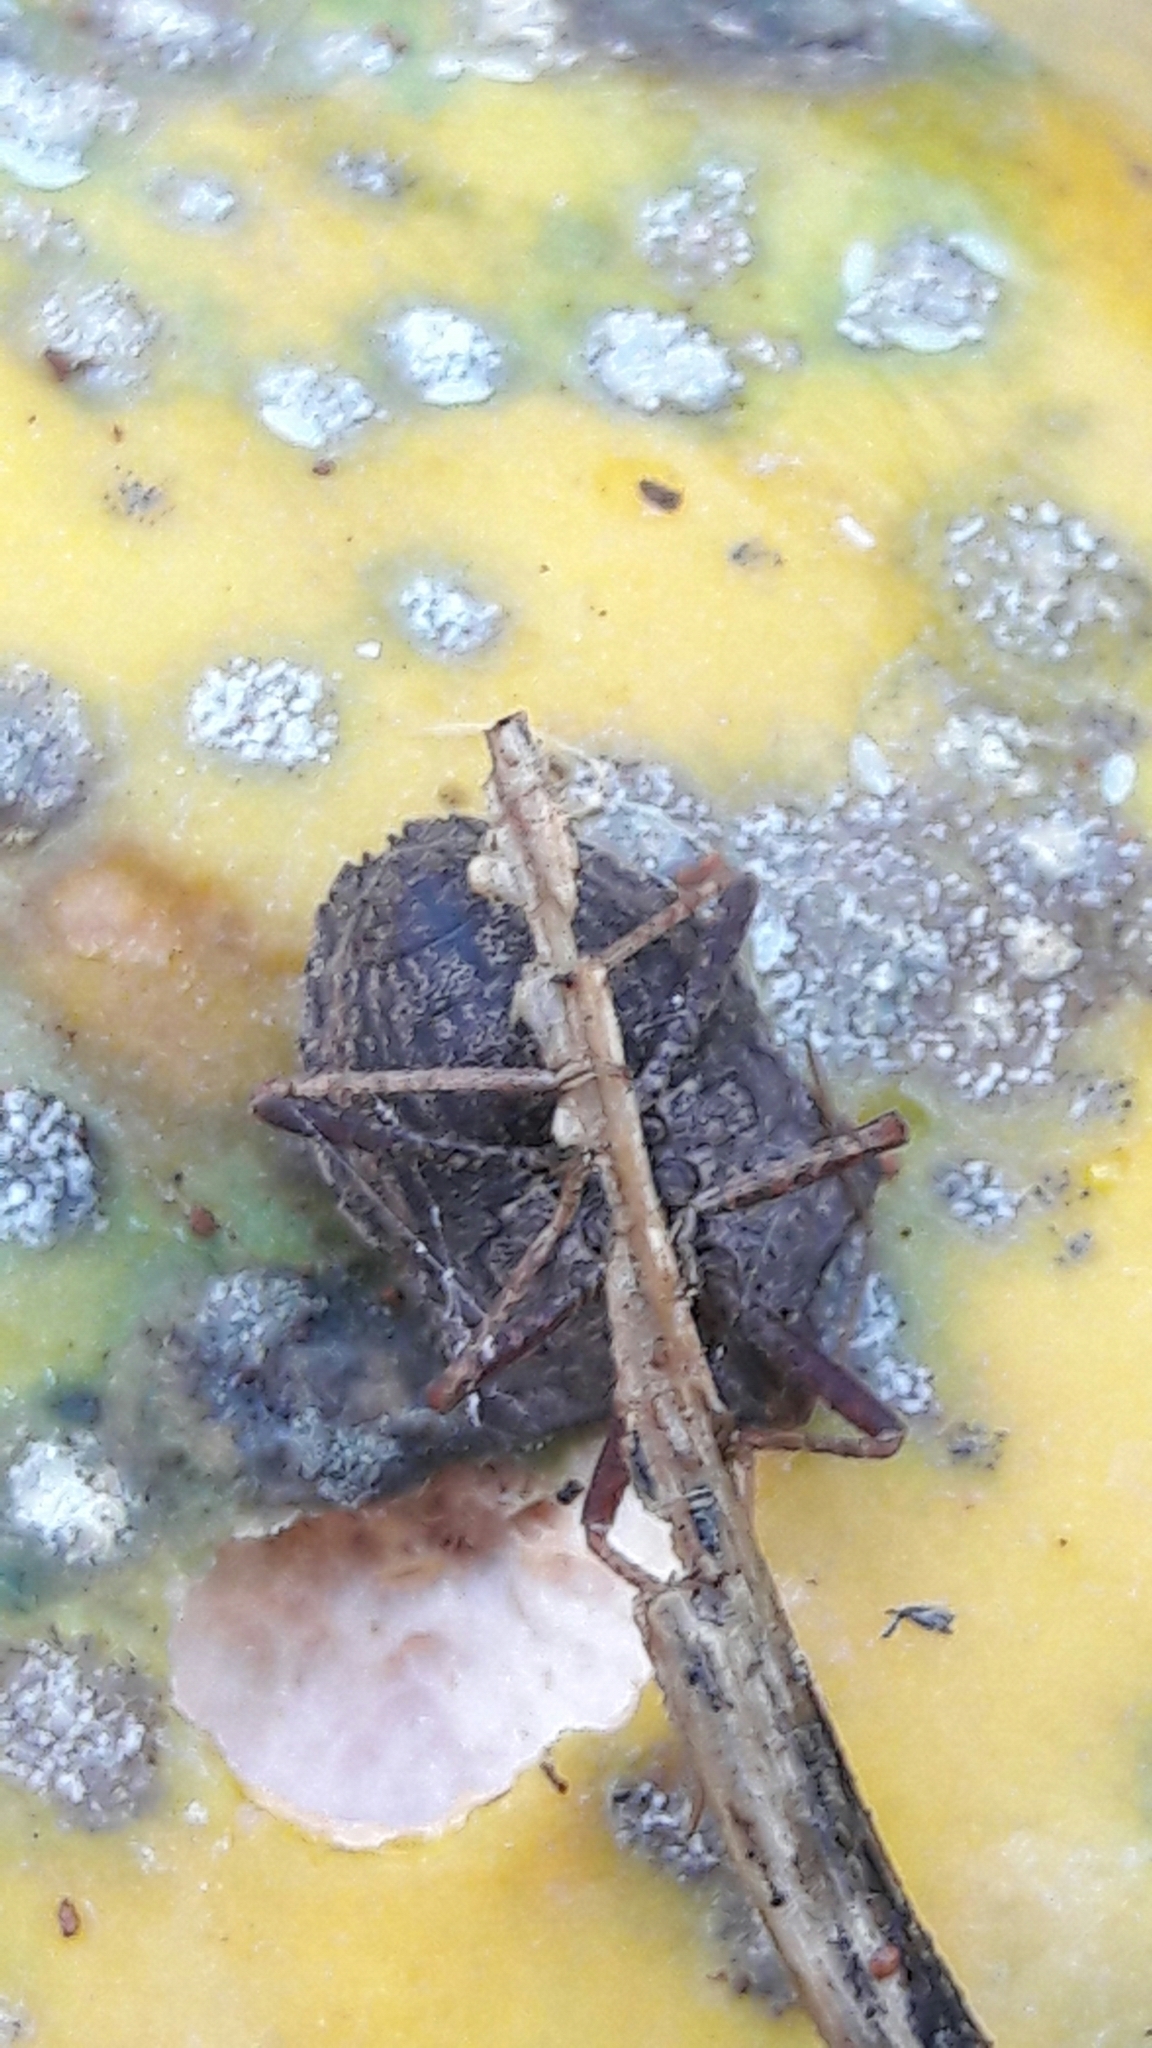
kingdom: Animalia
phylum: Arthropoda
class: Insecta
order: Hemiptera
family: Pentatomidae
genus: Picromerus
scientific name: Picromerus griseus
